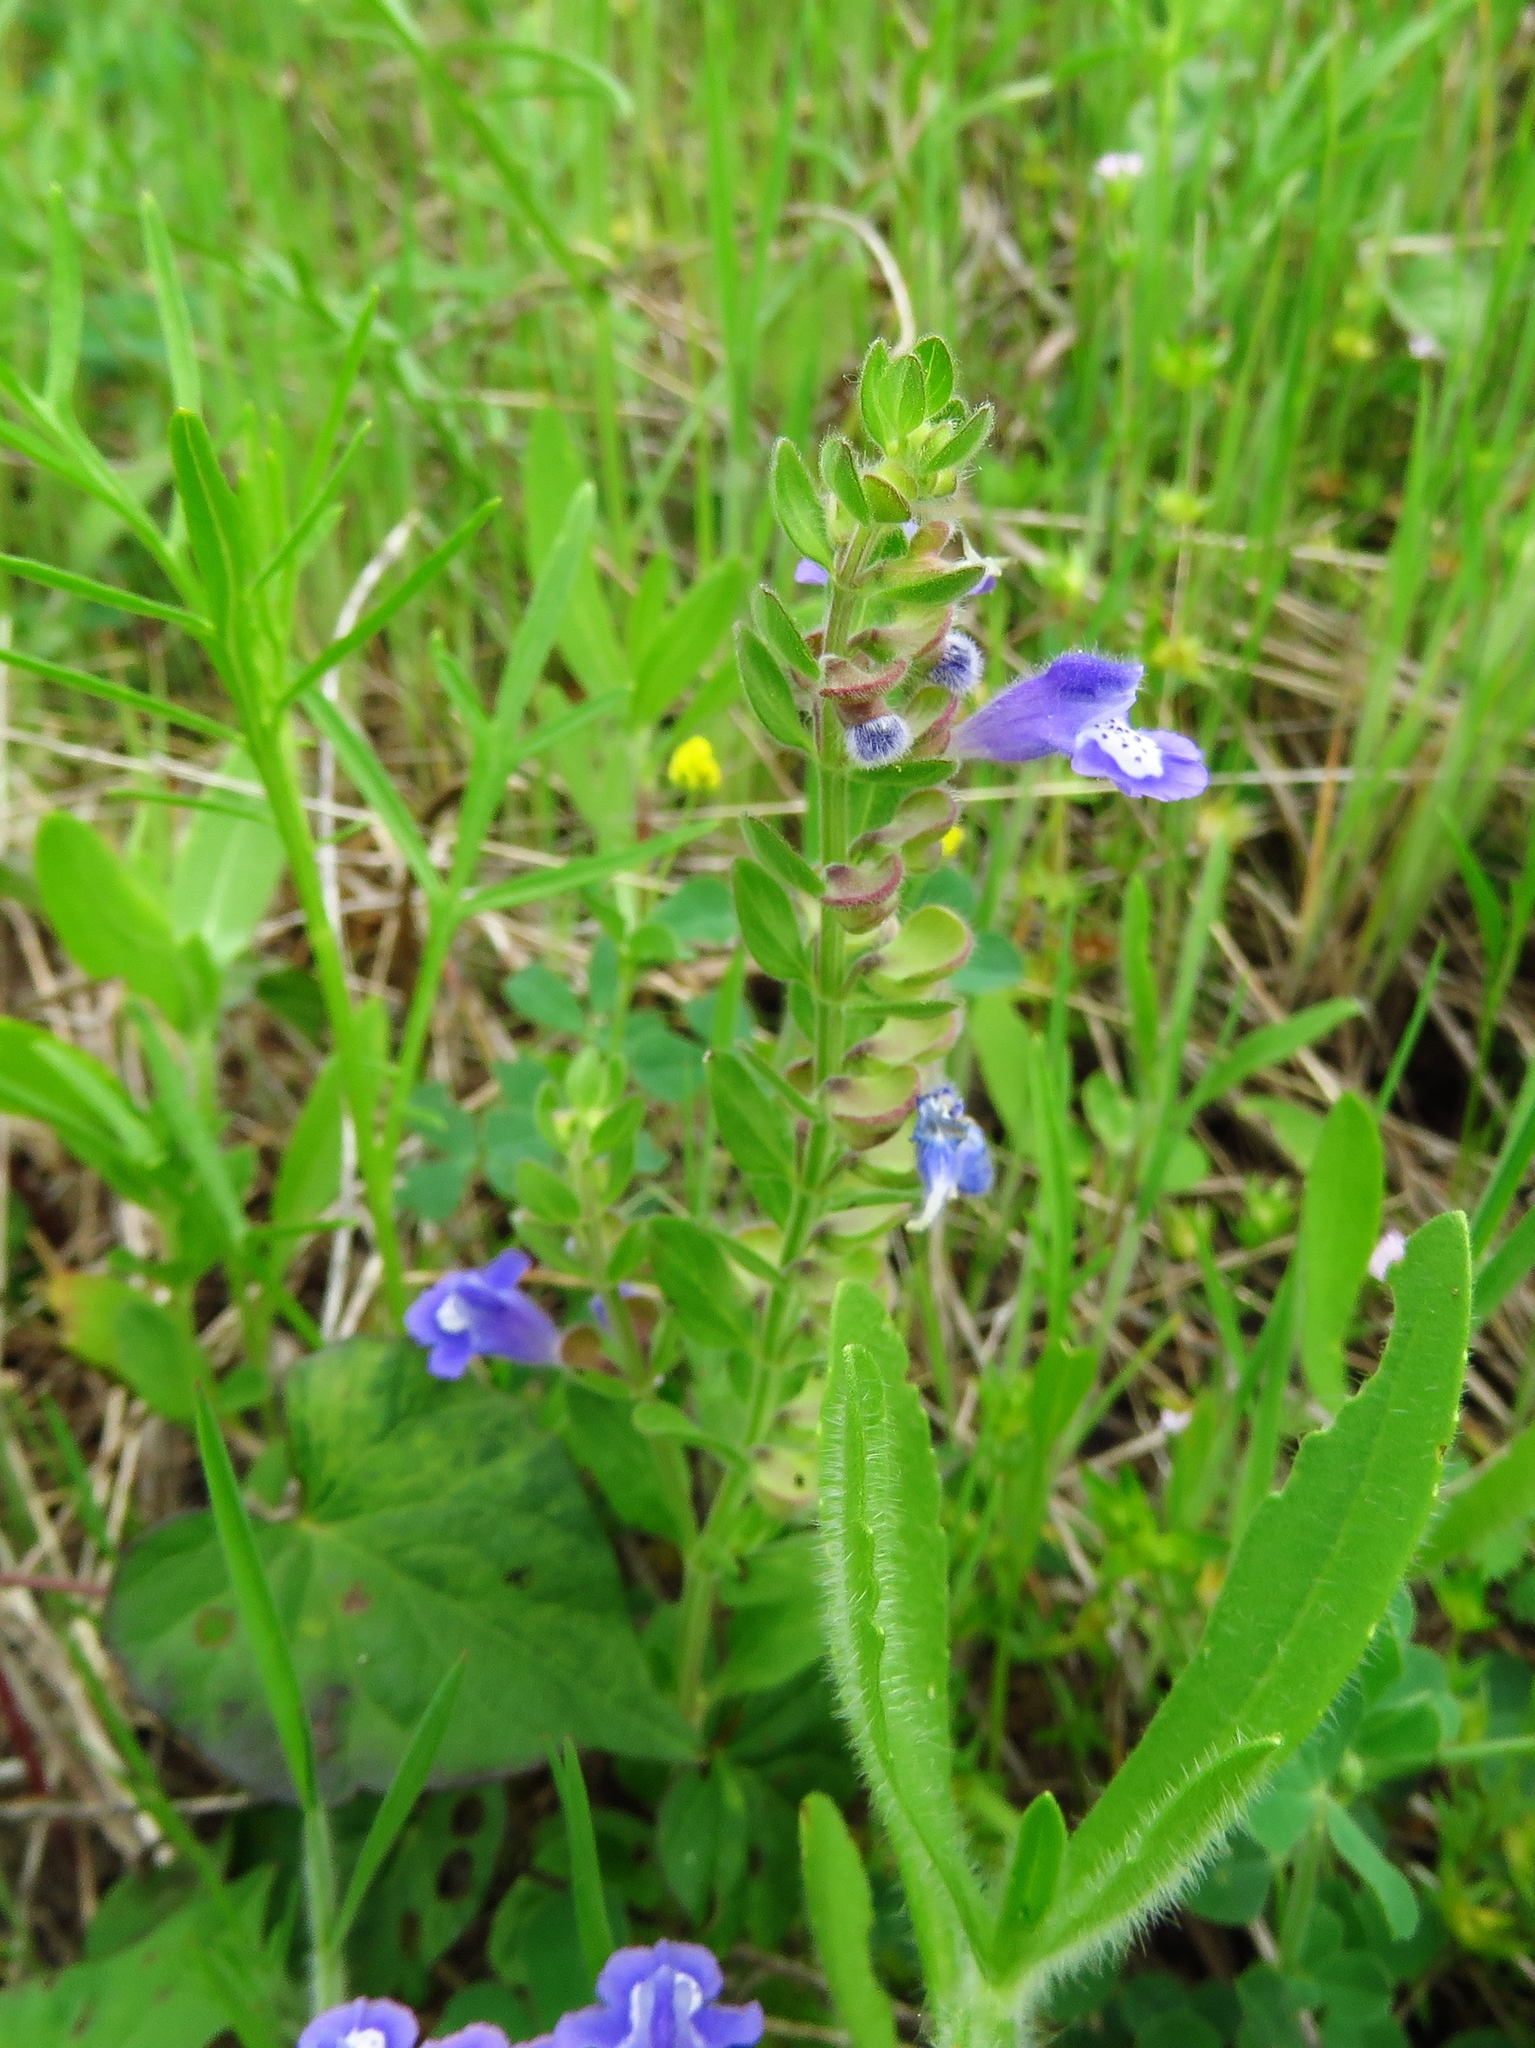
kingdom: Plantae
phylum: Tracheophyta
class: Magnoliopsida
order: Lamiales
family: Lamiaceae
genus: Scutellaria
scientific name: Scutellaria drummondii
